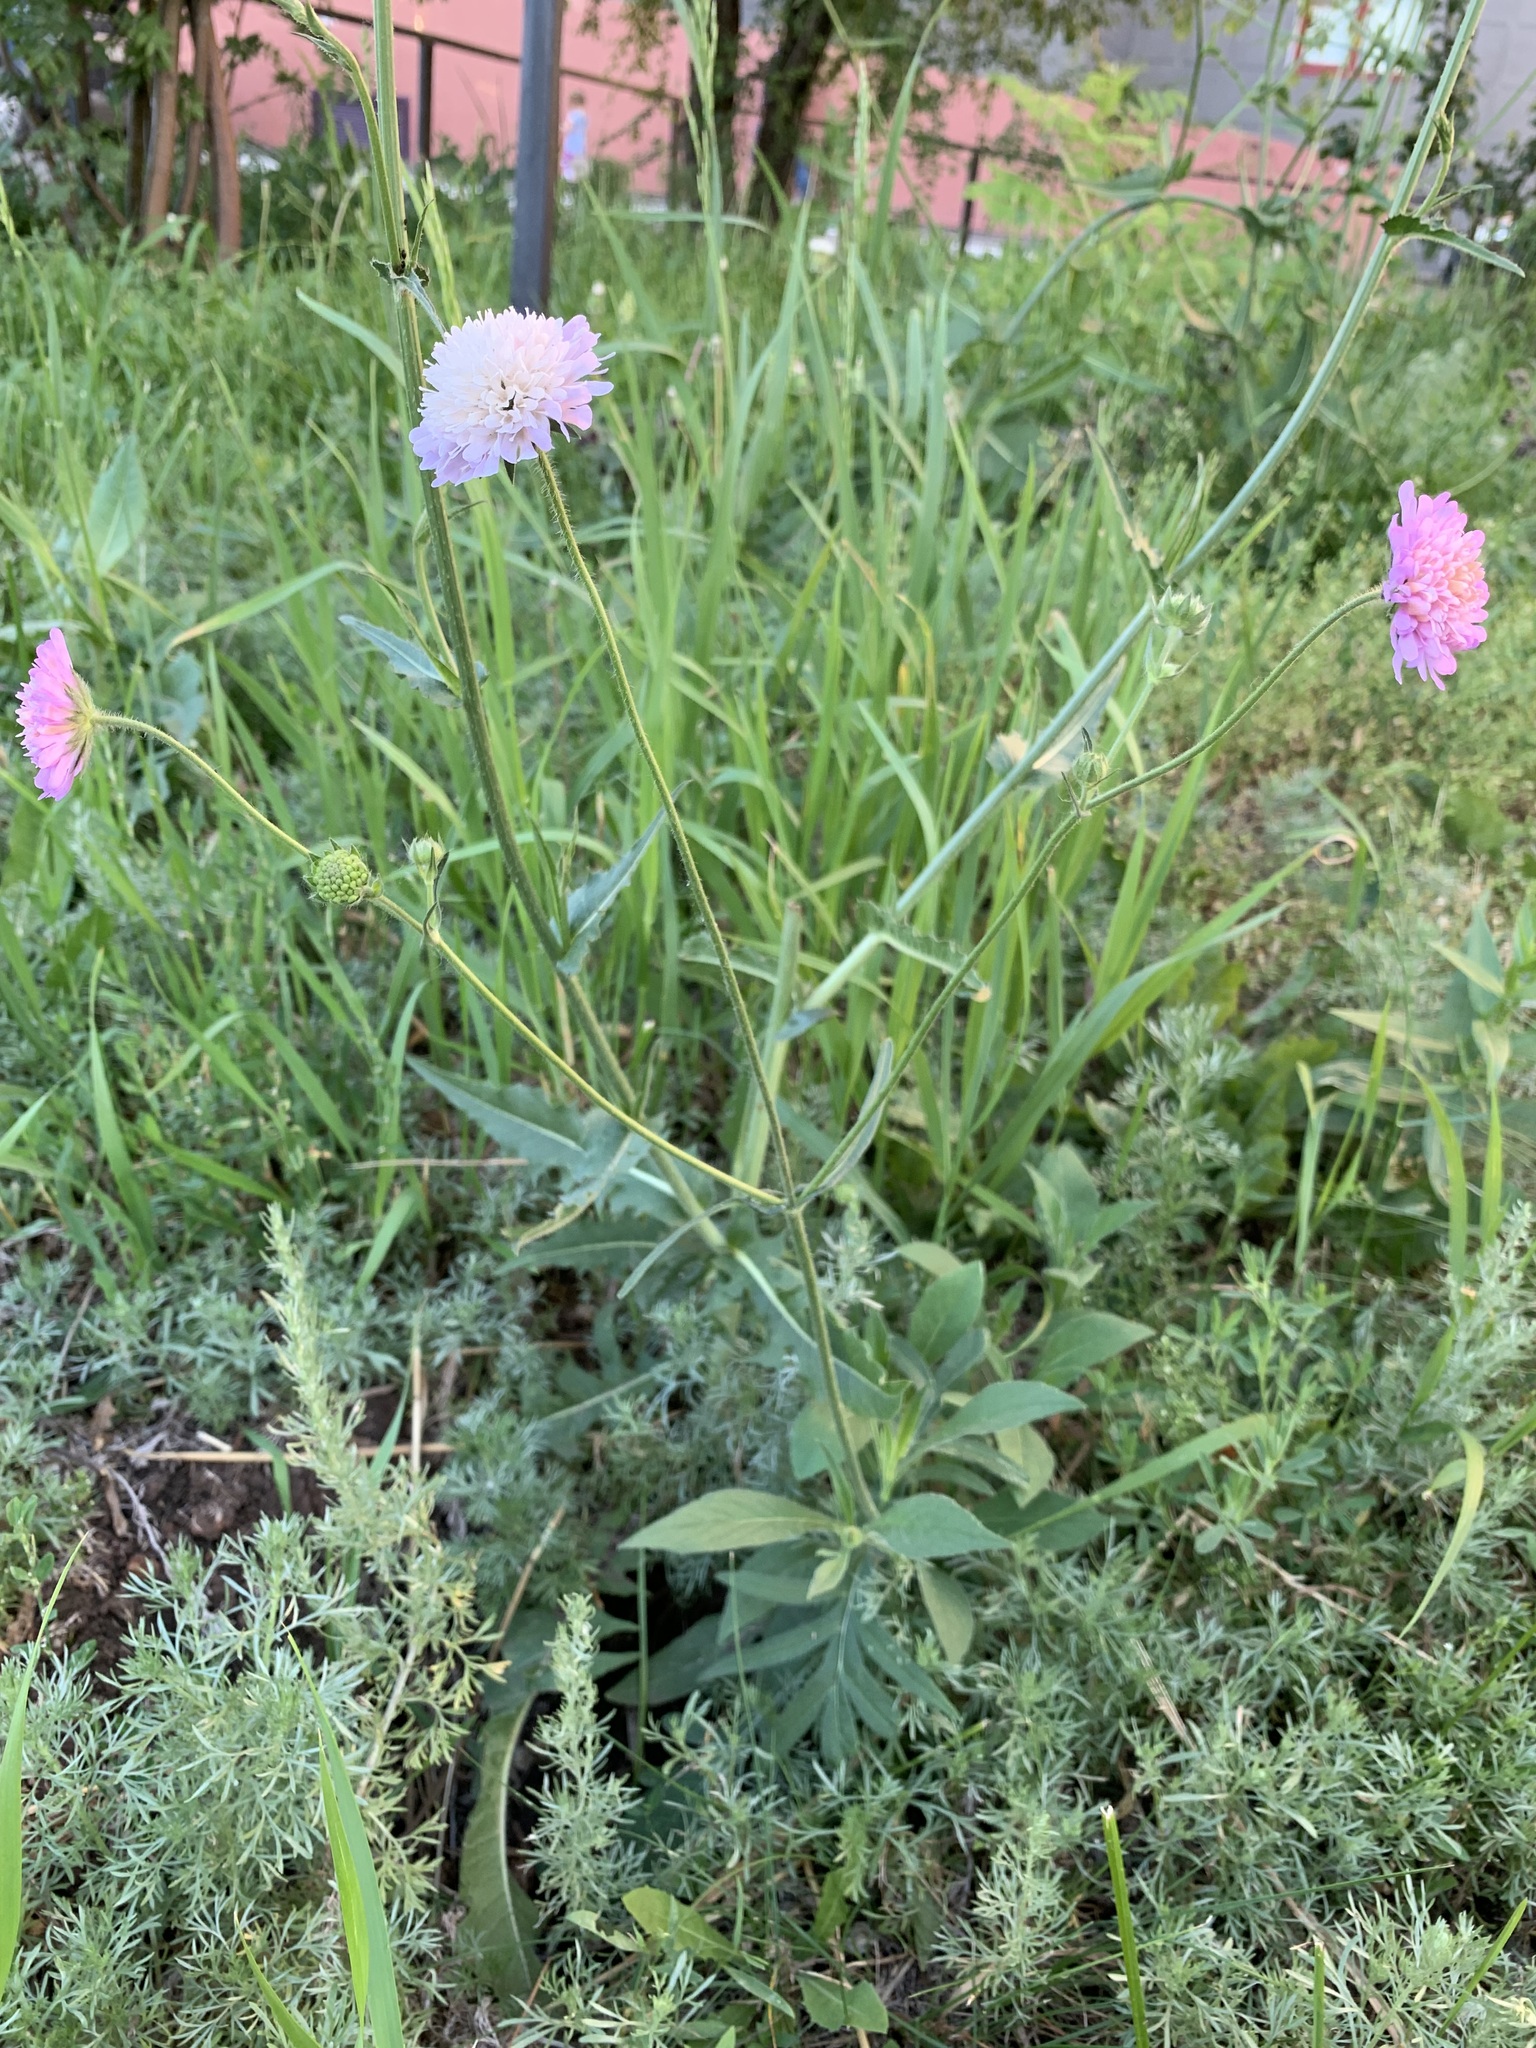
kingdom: Plantae
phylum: Tracheophyta
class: Magnoliopsida
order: Dipsacales
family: Caprifoliaceae
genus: Knautia
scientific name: Knautia arvensis
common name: Field scabiosa
